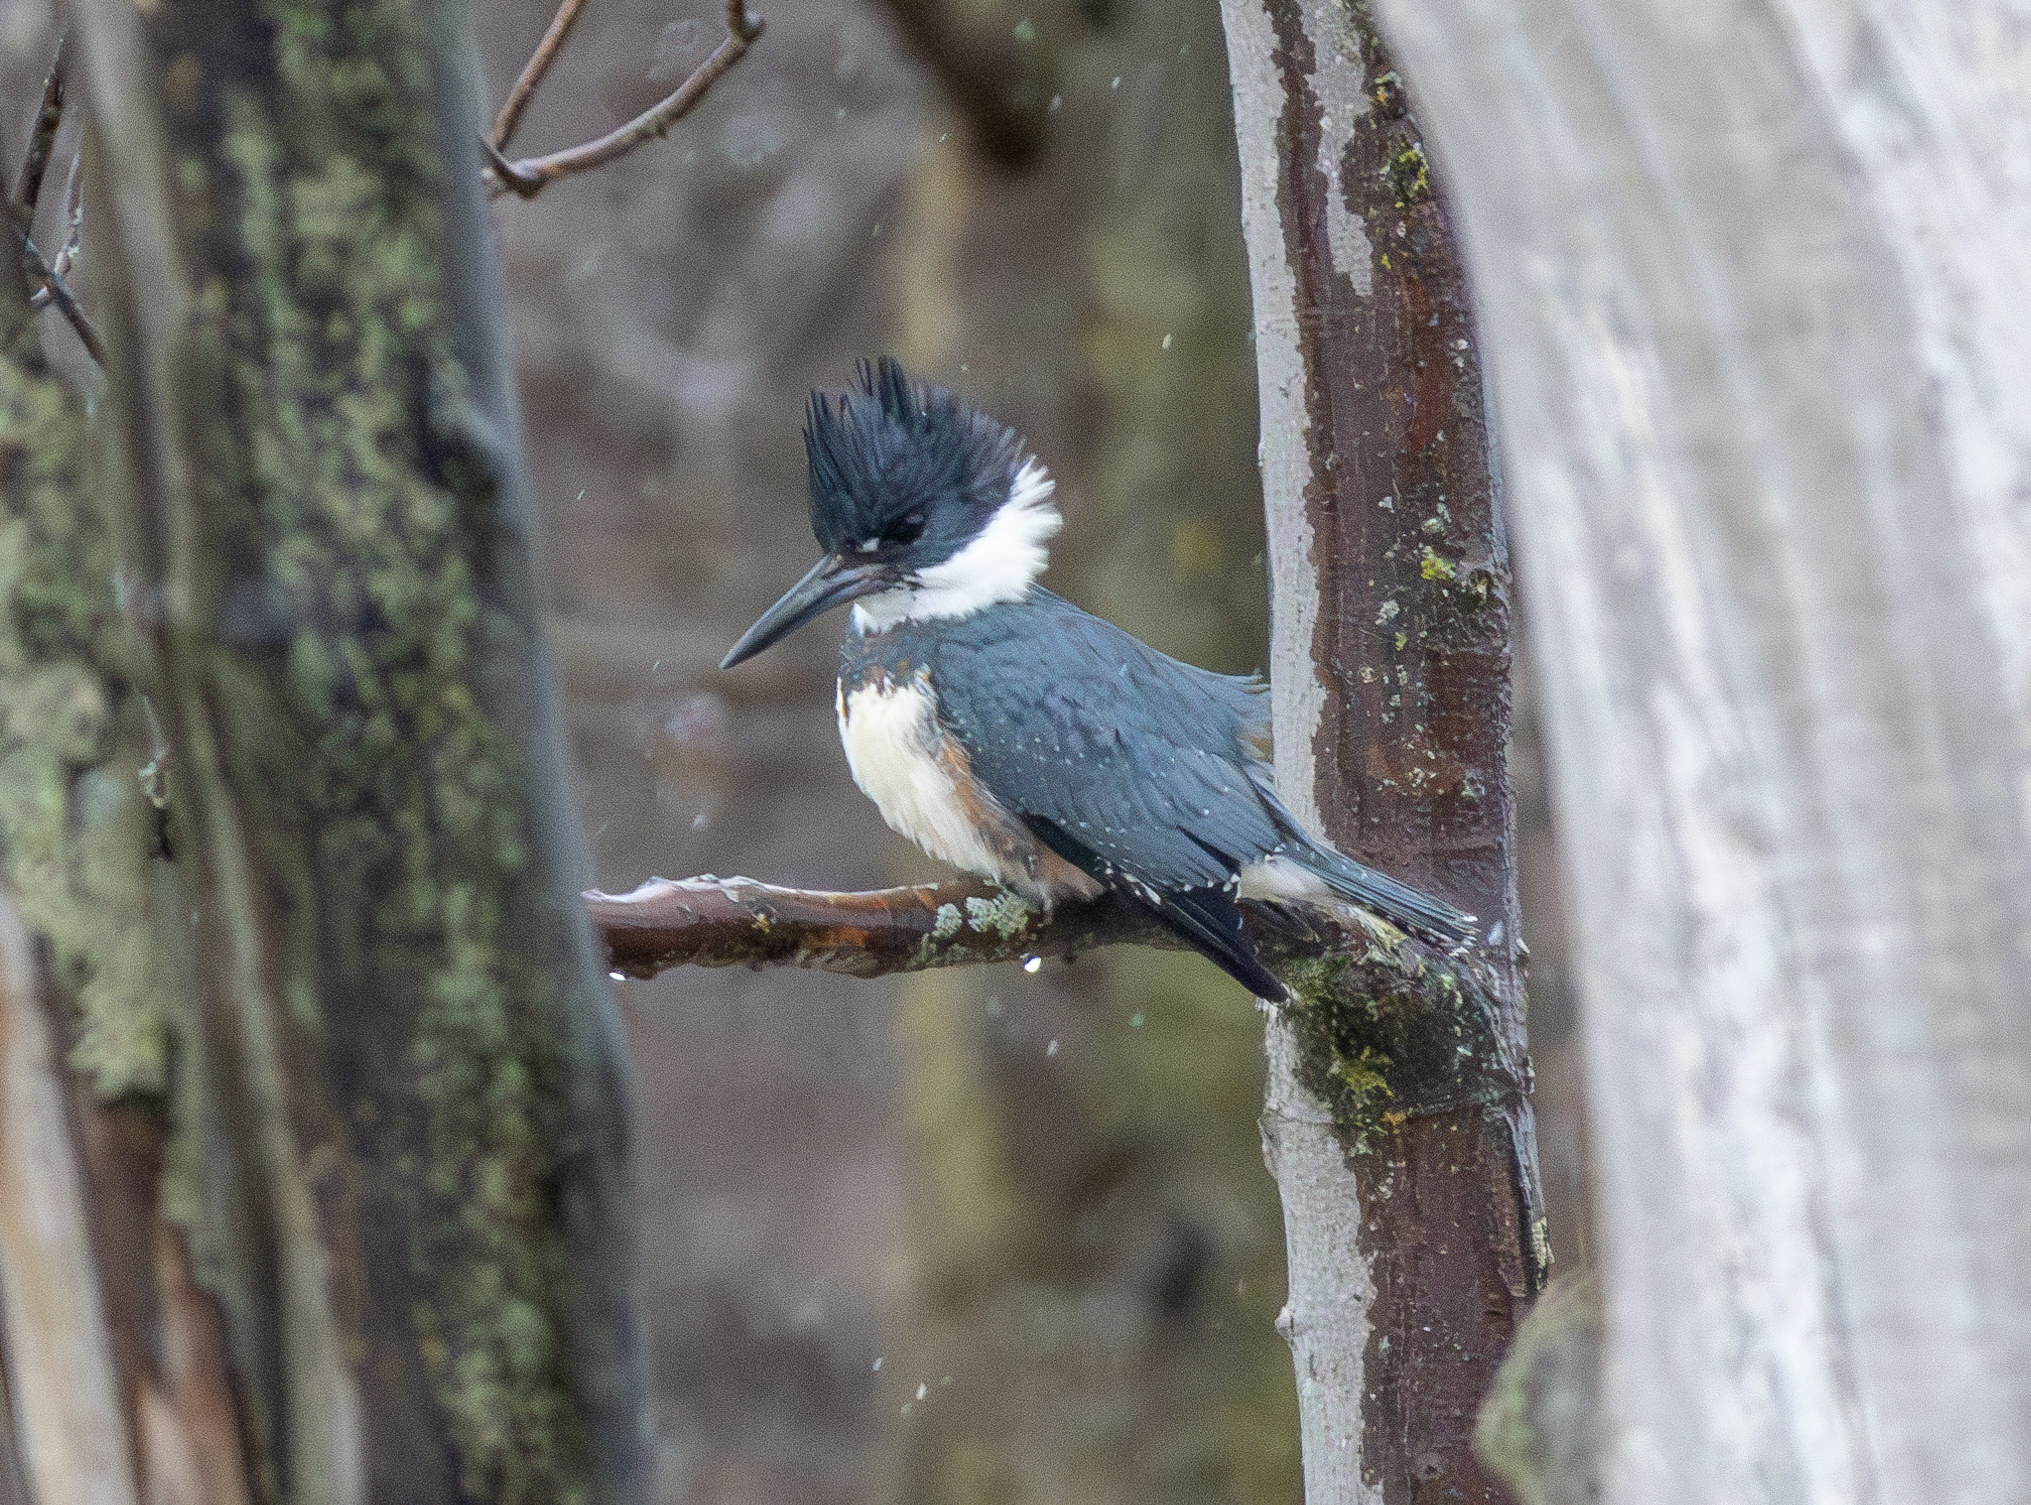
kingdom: Animalia
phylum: Chordata
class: Aves
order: Coraciiformes
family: Alcedinidae
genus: Megaceryle
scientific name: Megaceryle alcyon
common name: Belted kingfisher
